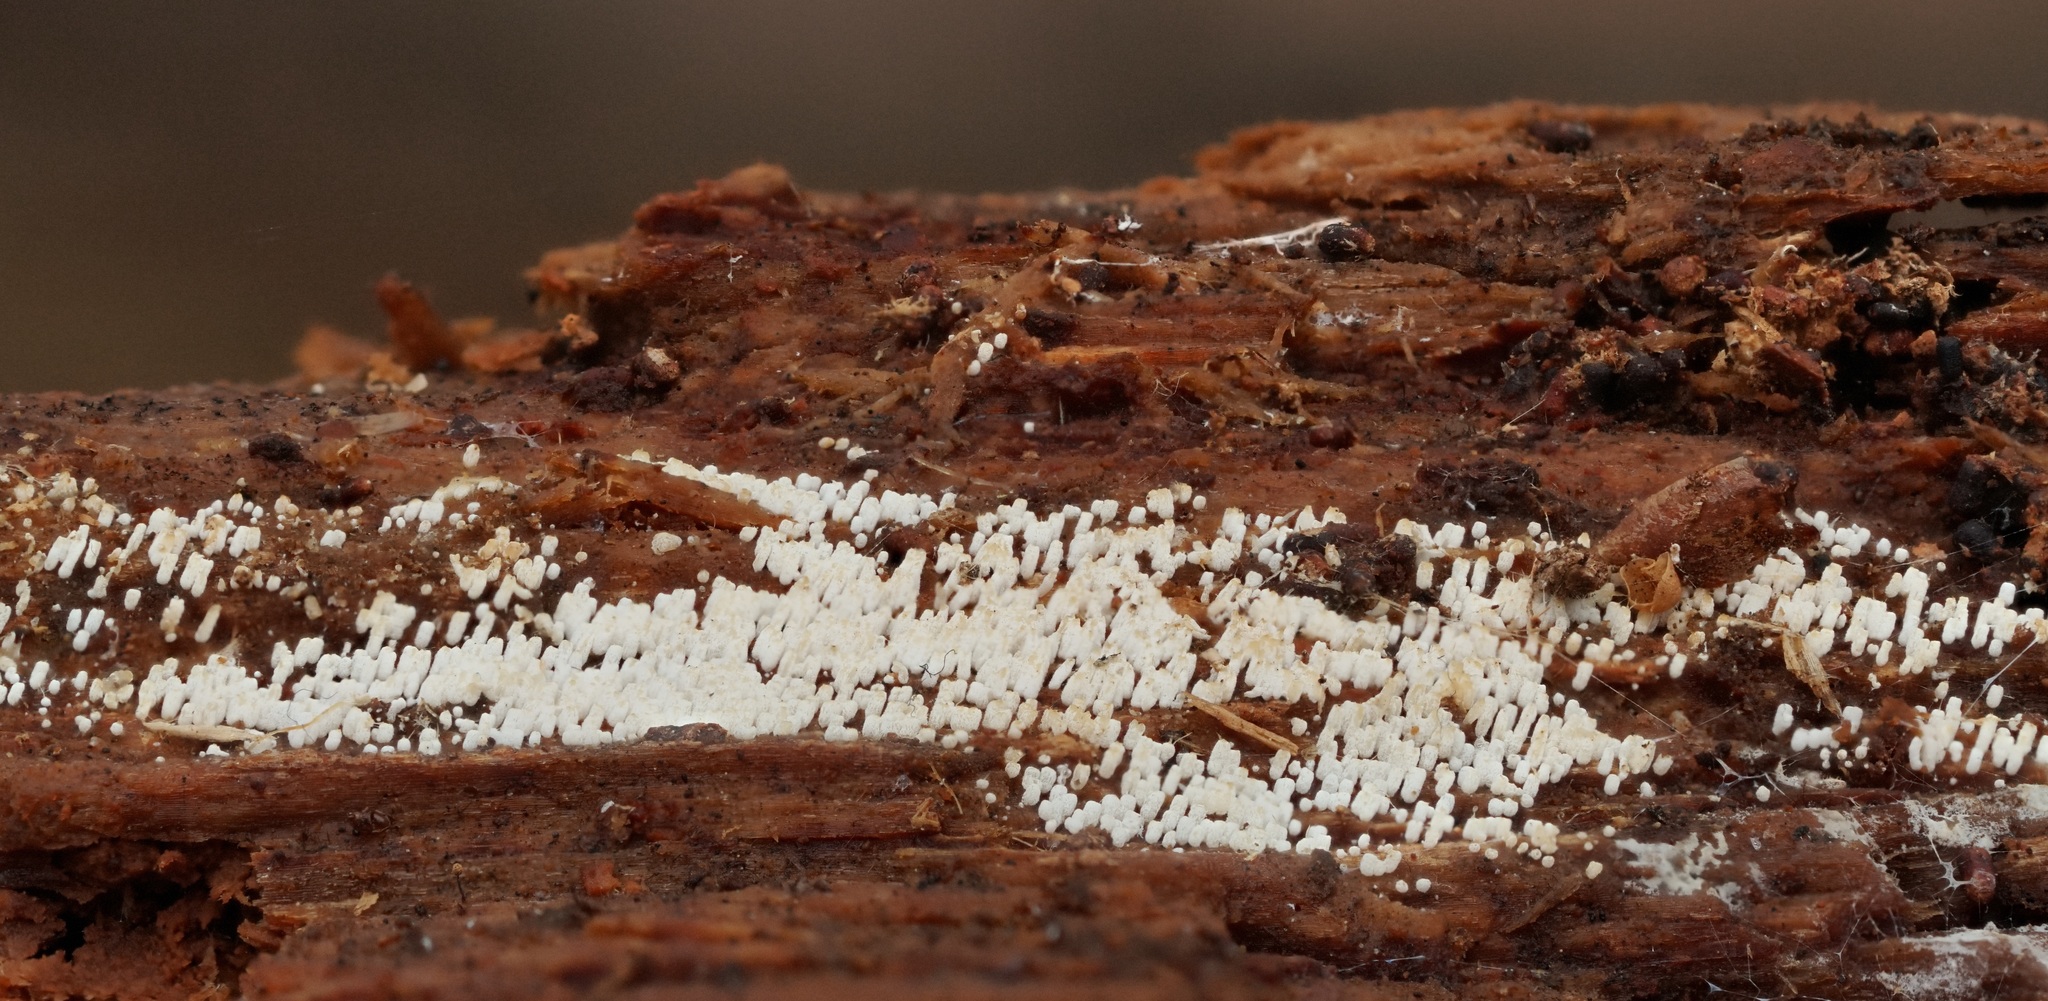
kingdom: Fungi
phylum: Basidiomycota
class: Agaricomycetes
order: Agaricales
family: Marasmiaceae
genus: Henningsomyces
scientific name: Henningsomyces candidus
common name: White tubelet
